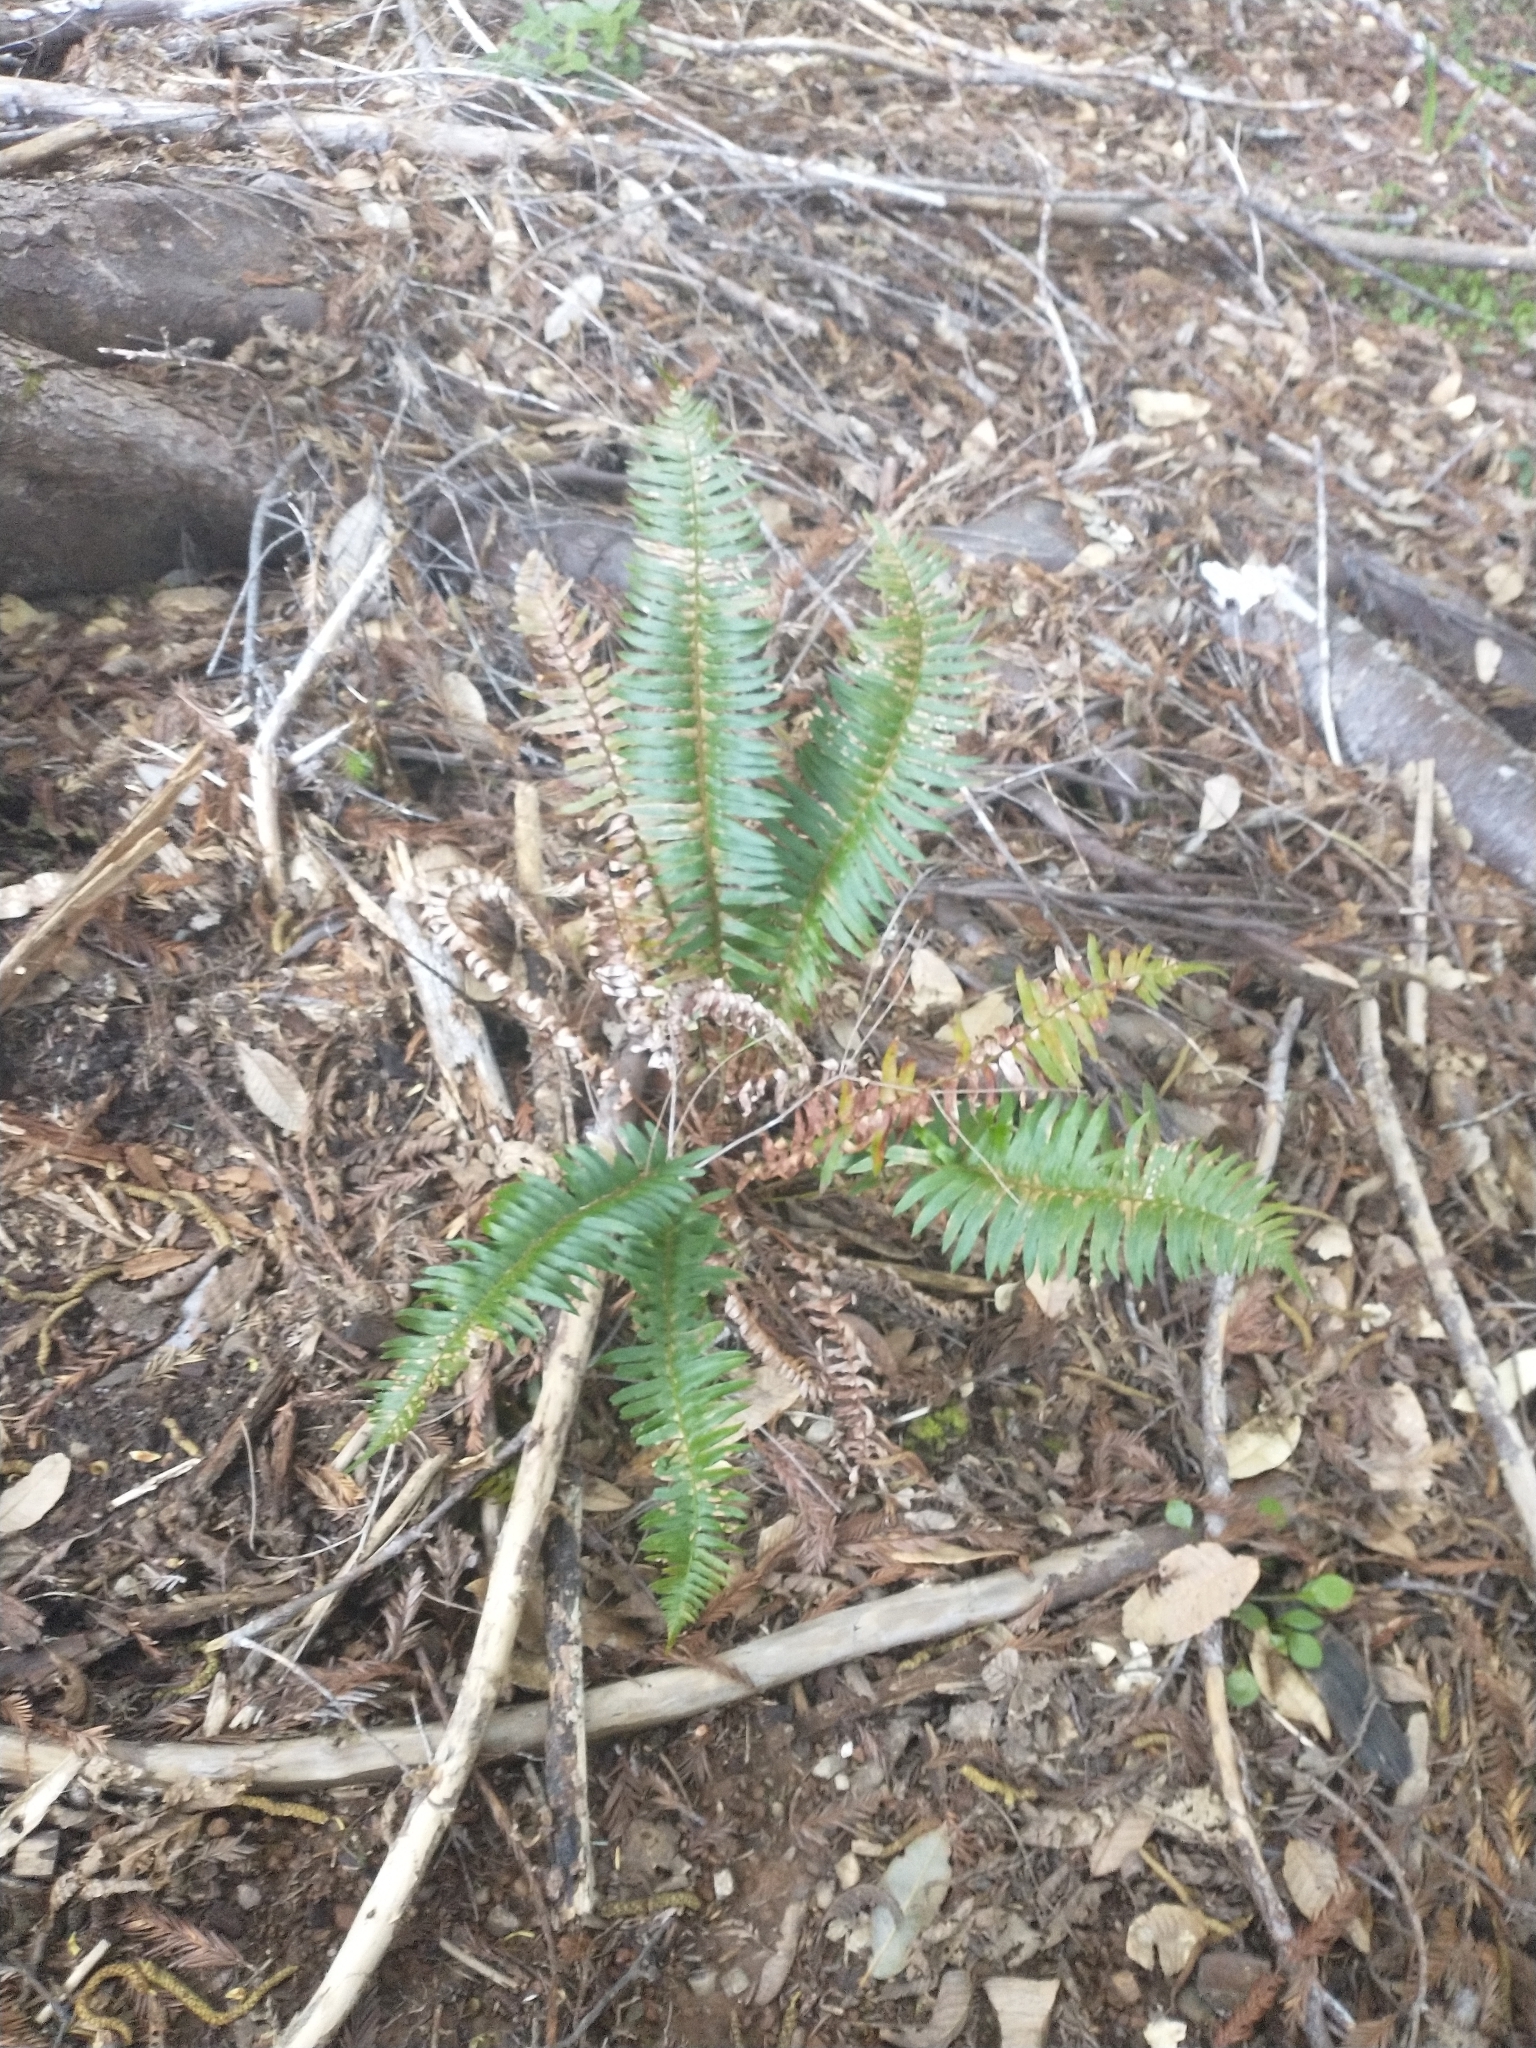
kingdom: Plantae
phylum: Tracheophyta
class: Polypodiopsida
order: Polypodiales
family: Dryopteridaceae
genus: Polystichum
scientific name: Polystichum munitum
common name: Western sword-fern
